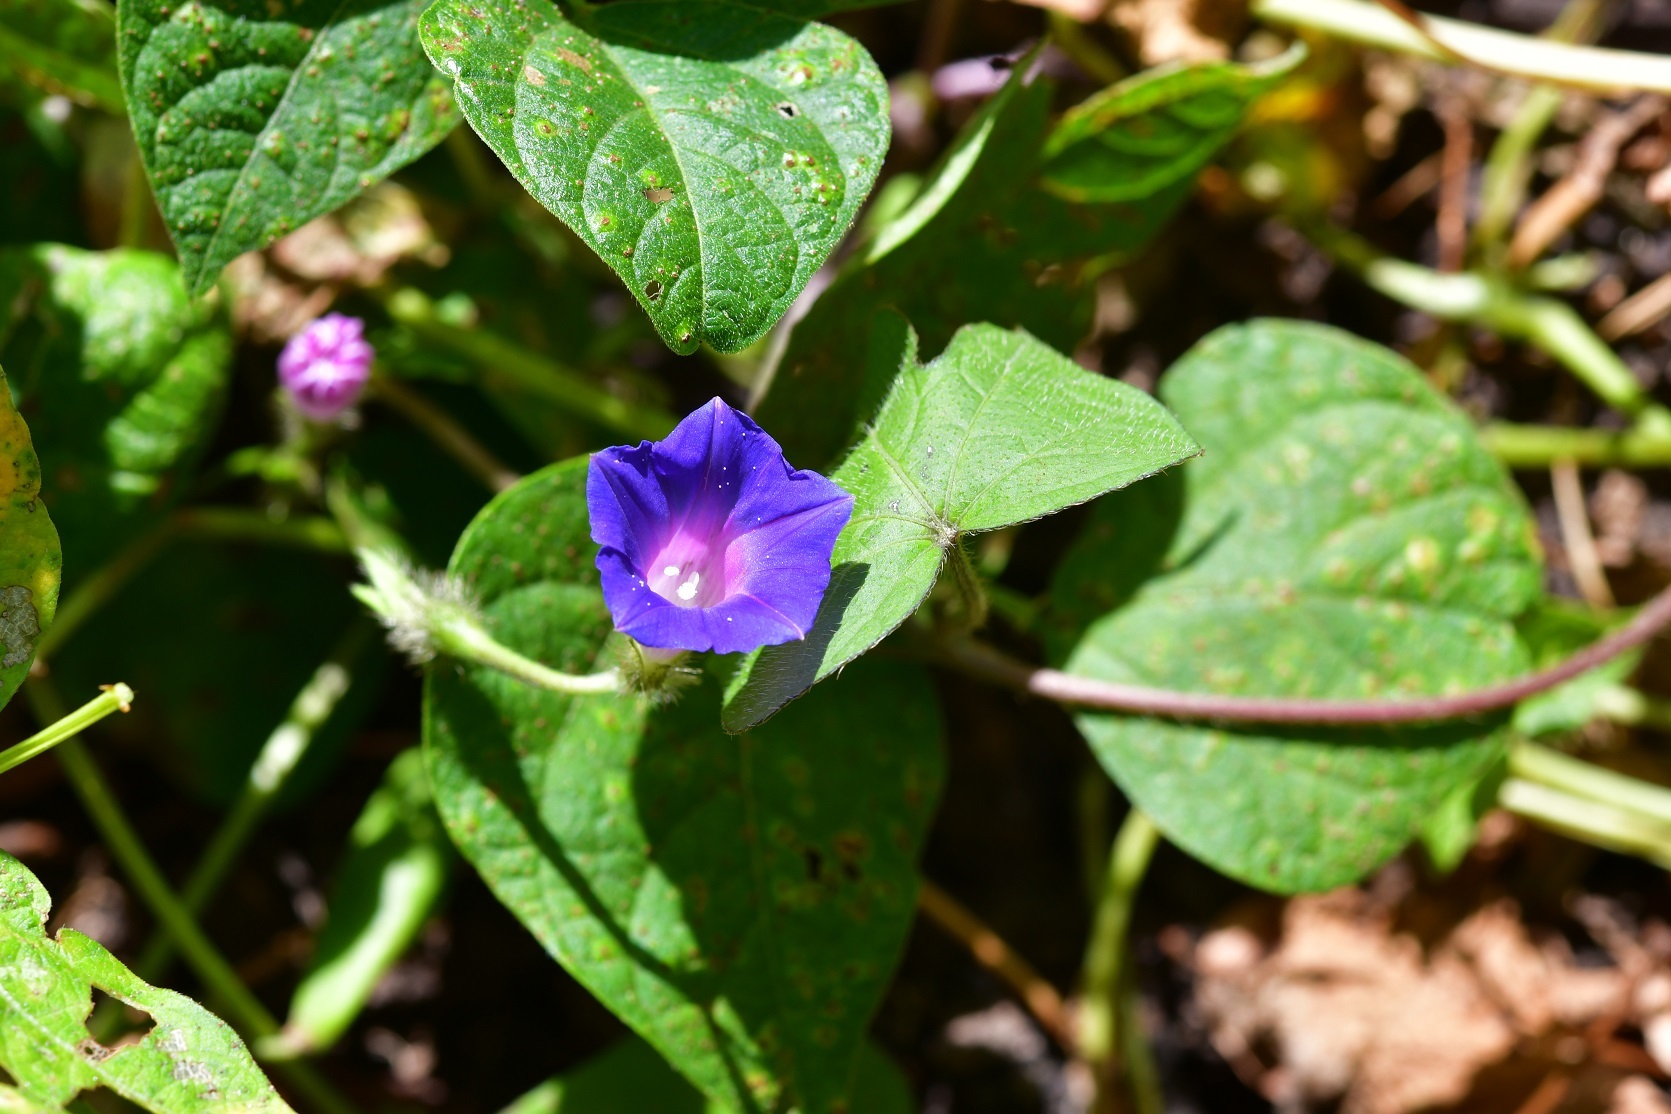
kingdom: Plantae
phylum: Tracheophyta
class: Magnoliopsida
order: Solanales
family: Convolvulaceae
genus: Ipomoea
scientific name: Ipomoea purpurea
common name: Common morning-glory
